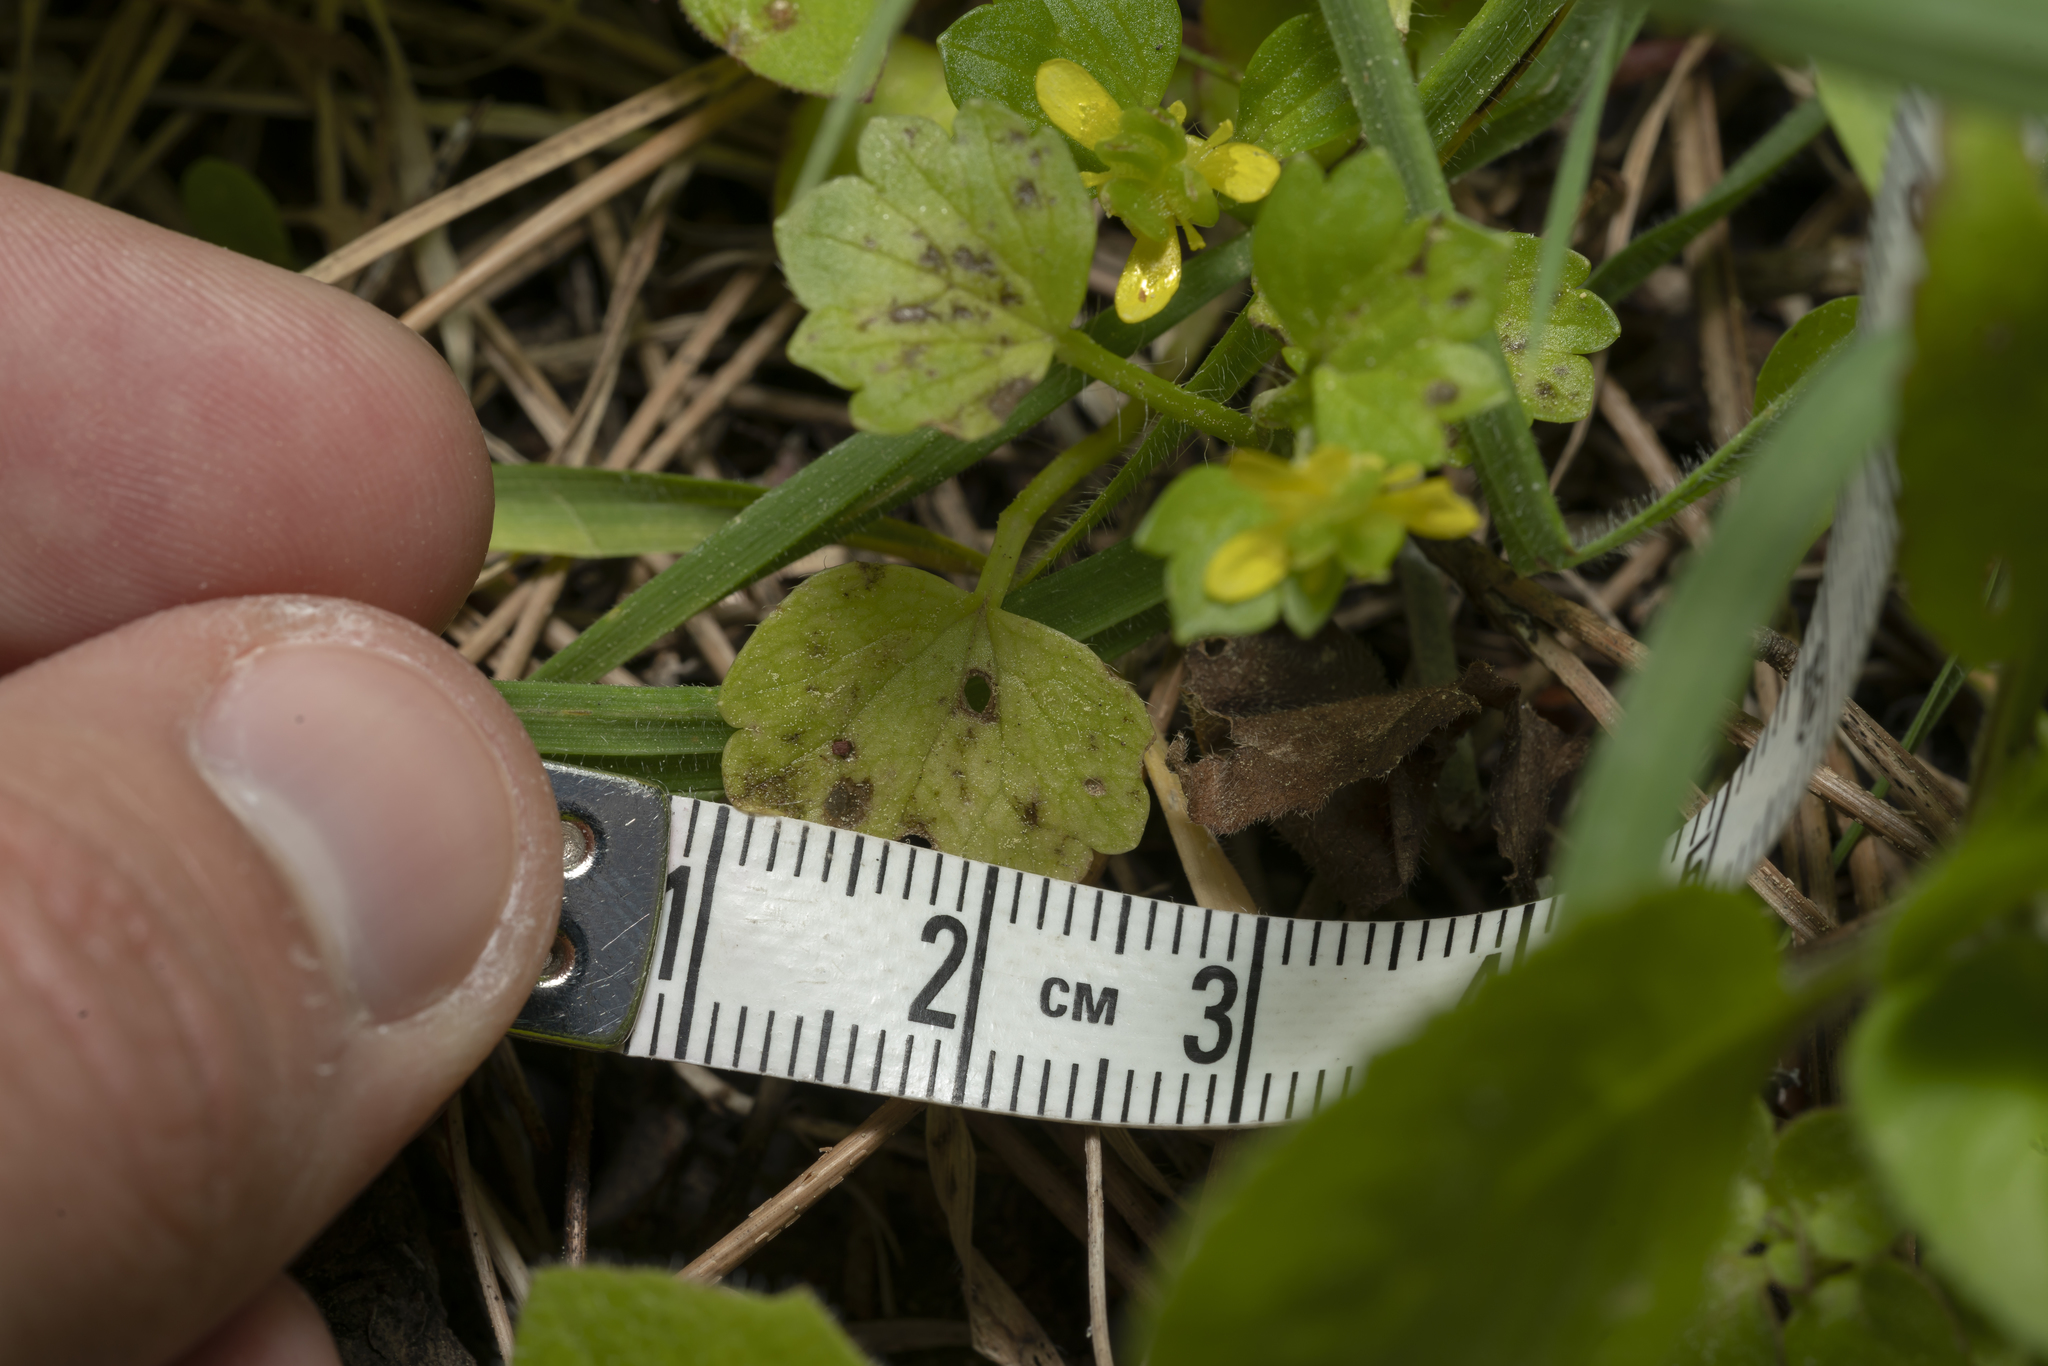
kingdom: Plantae
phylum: Tracheophyta
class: Magnoliopsida
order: Ranunculales
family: Ranunculaceae
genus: Ranunculus
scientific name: Ranunculus
